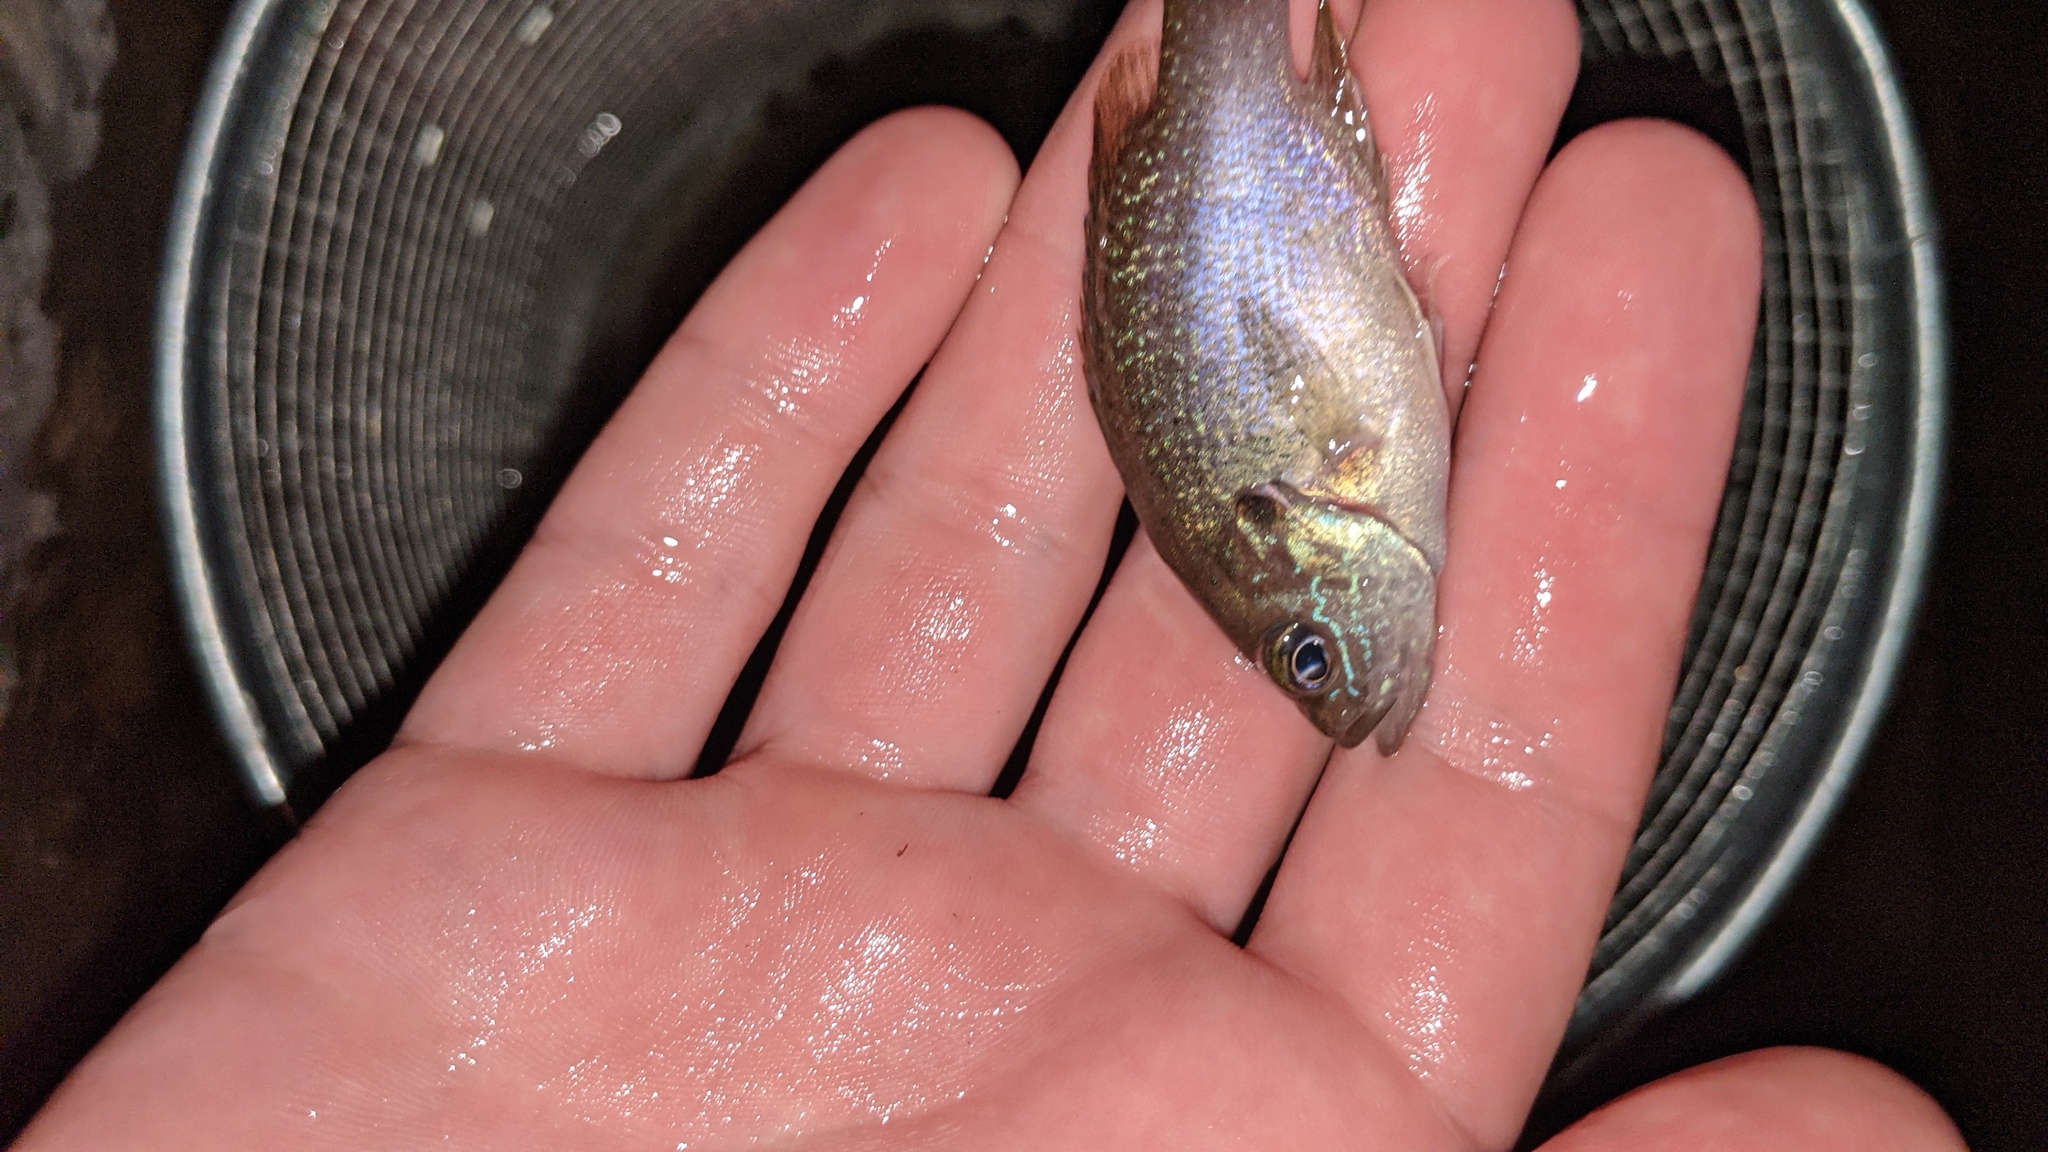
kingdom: Animalia
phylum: Chordata
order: Perciformes
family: Centrarchidae
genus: Lepomis
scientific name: Lepomis cyanellus
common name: Green sunfish
